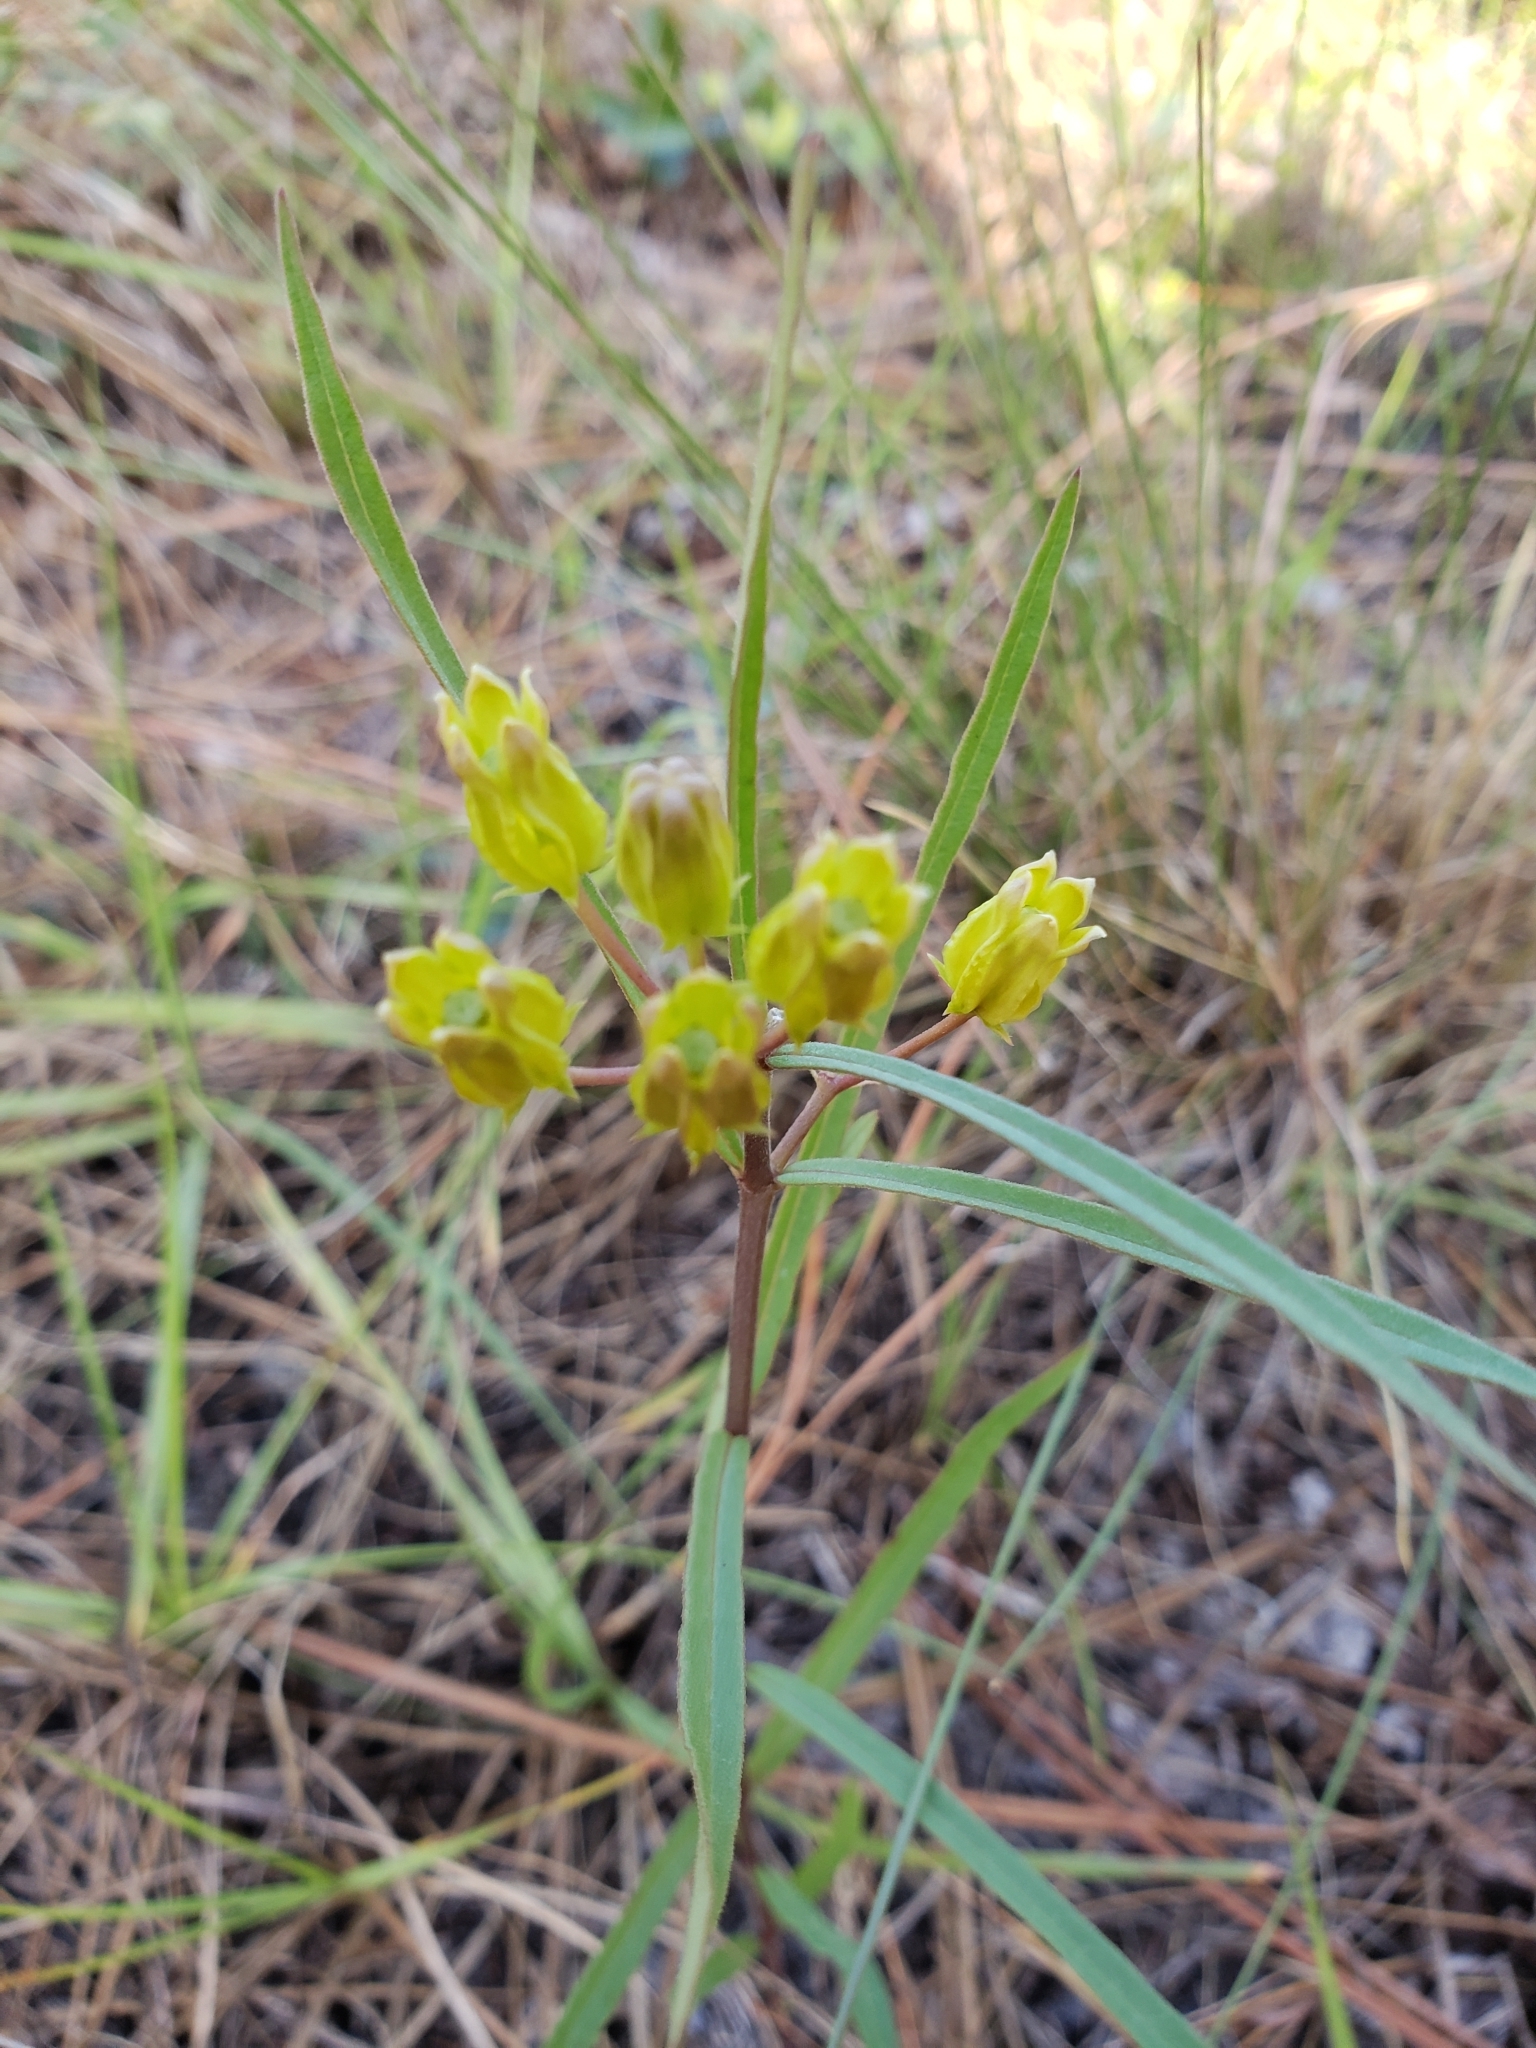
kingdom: Plantae
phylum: Tracheophyta
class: Magnoliopsida
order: Gentianales
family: Apocynaceae
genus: Asclepias
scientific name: Asclepias pedicellata
